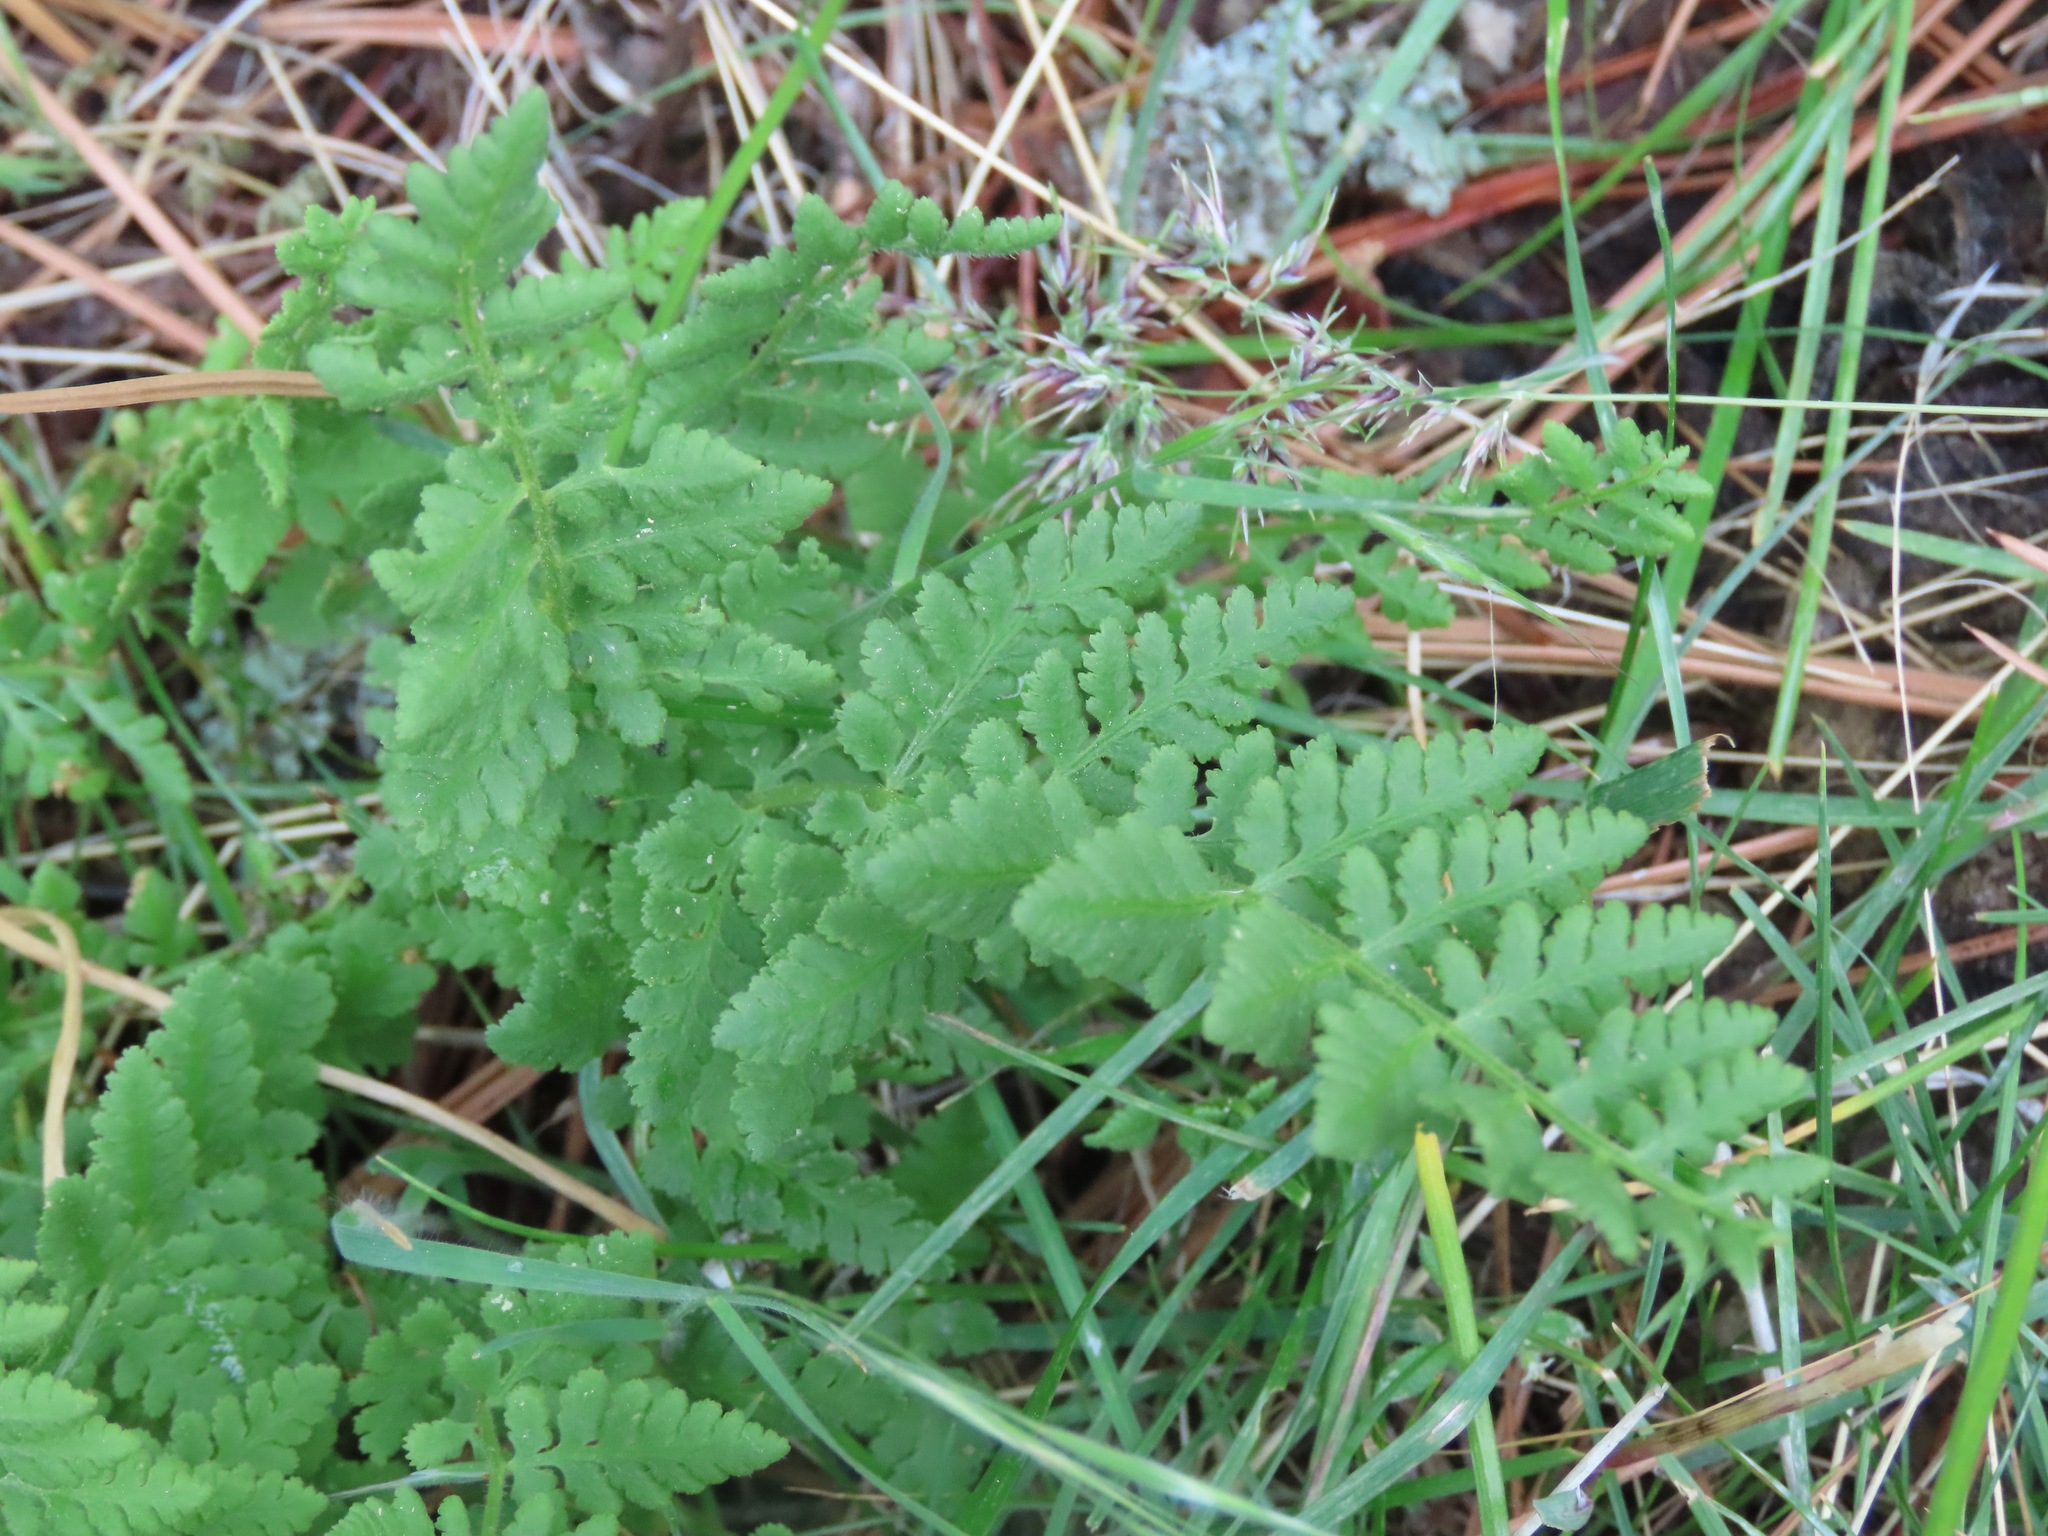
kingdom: Plantae
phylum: Tracheophyta
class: Polypodiopsida
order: Polypodiales
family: Woodsiaceae
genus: Physematium
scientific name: Physematium scopulinum
